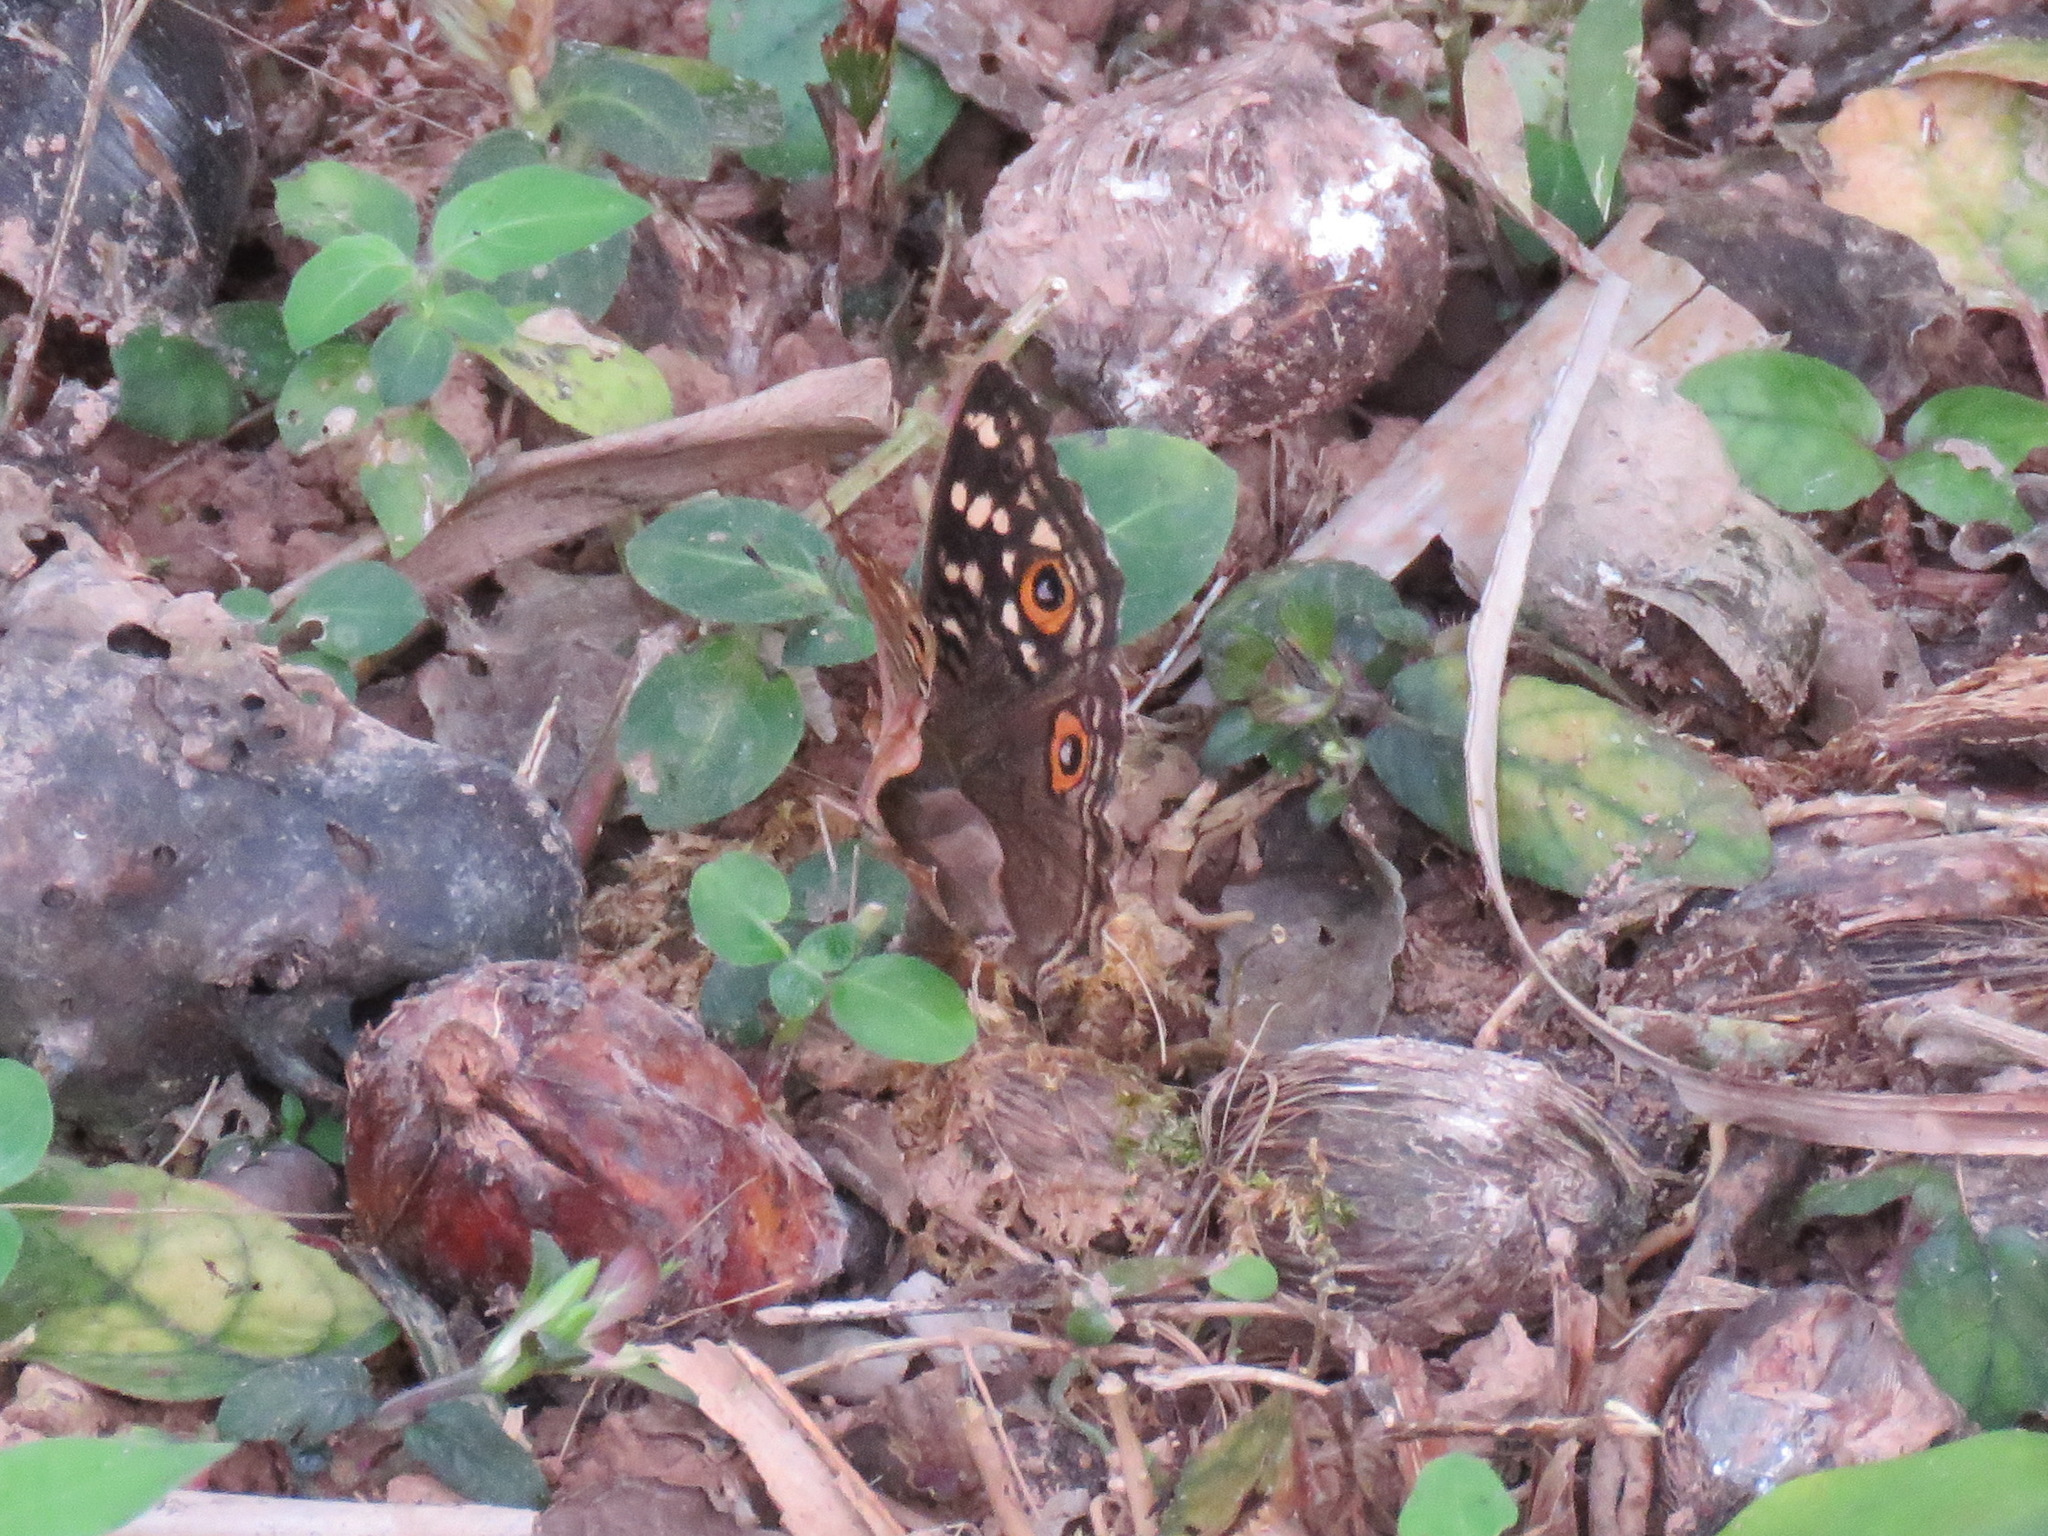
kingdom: Animalia
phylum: Arthropoda
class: Insecta
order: Lepidoptera
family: Nymphalidae
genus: Junonia
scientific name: Junonia lemonias
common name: Lemon pansy
